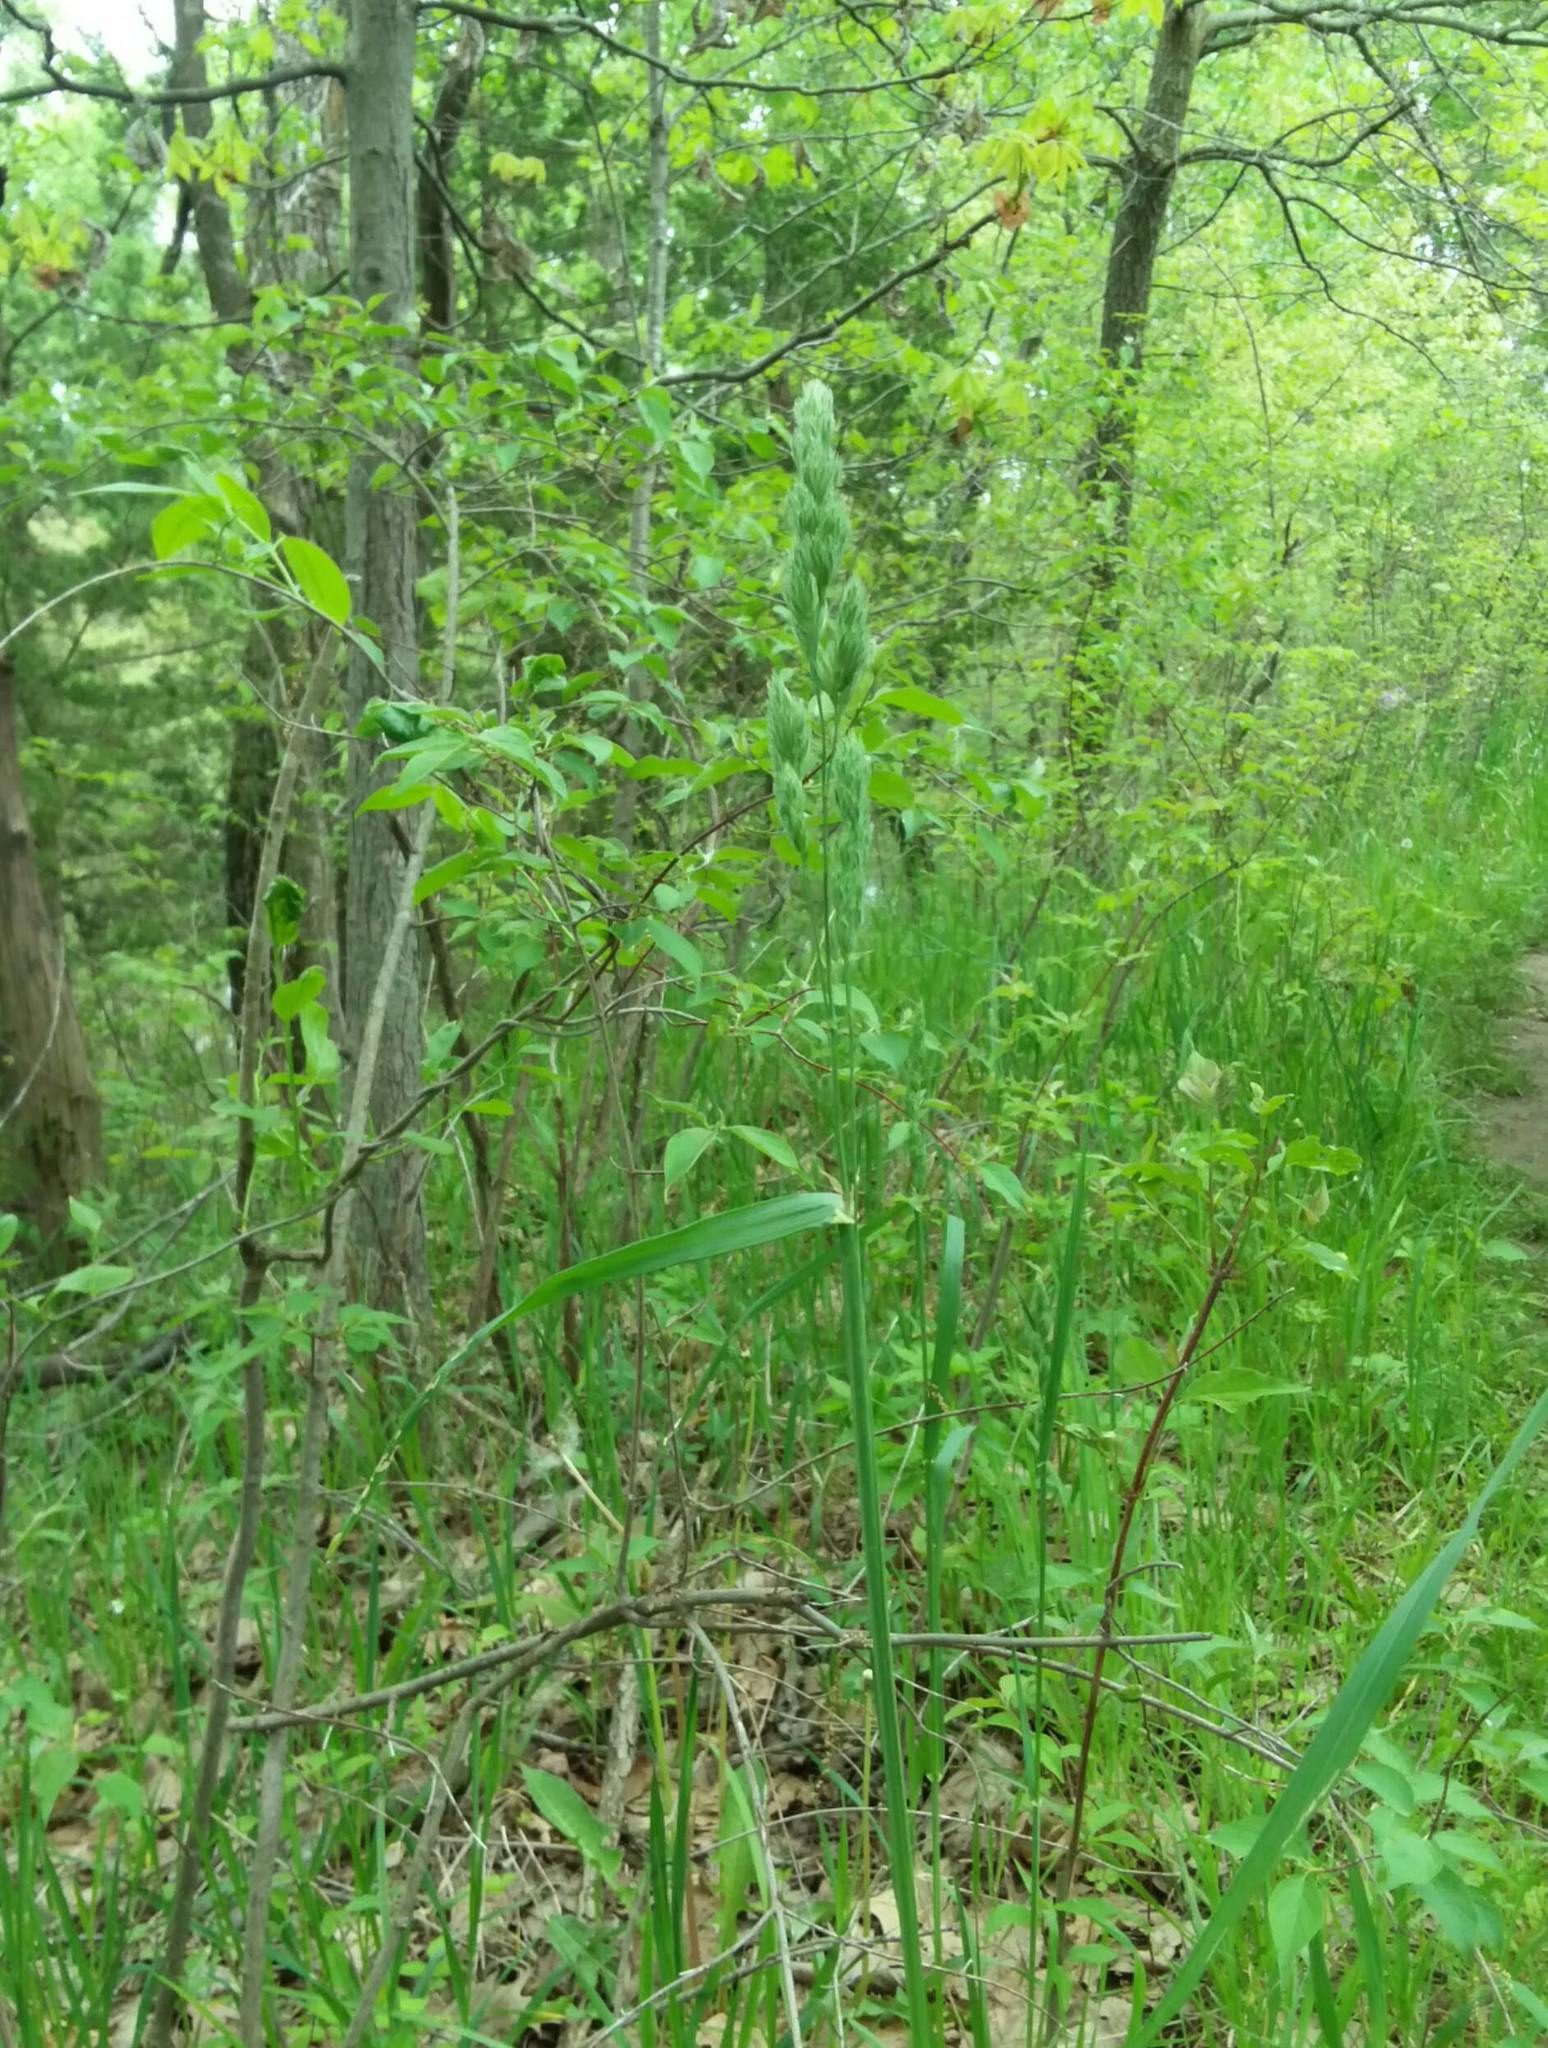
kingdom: Plantae
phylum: Tracheophyta
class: Liliopsida
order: Poales
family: Poaceae
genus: Dactylis
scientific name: Dactylis glomerata
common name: Orchardgrass
